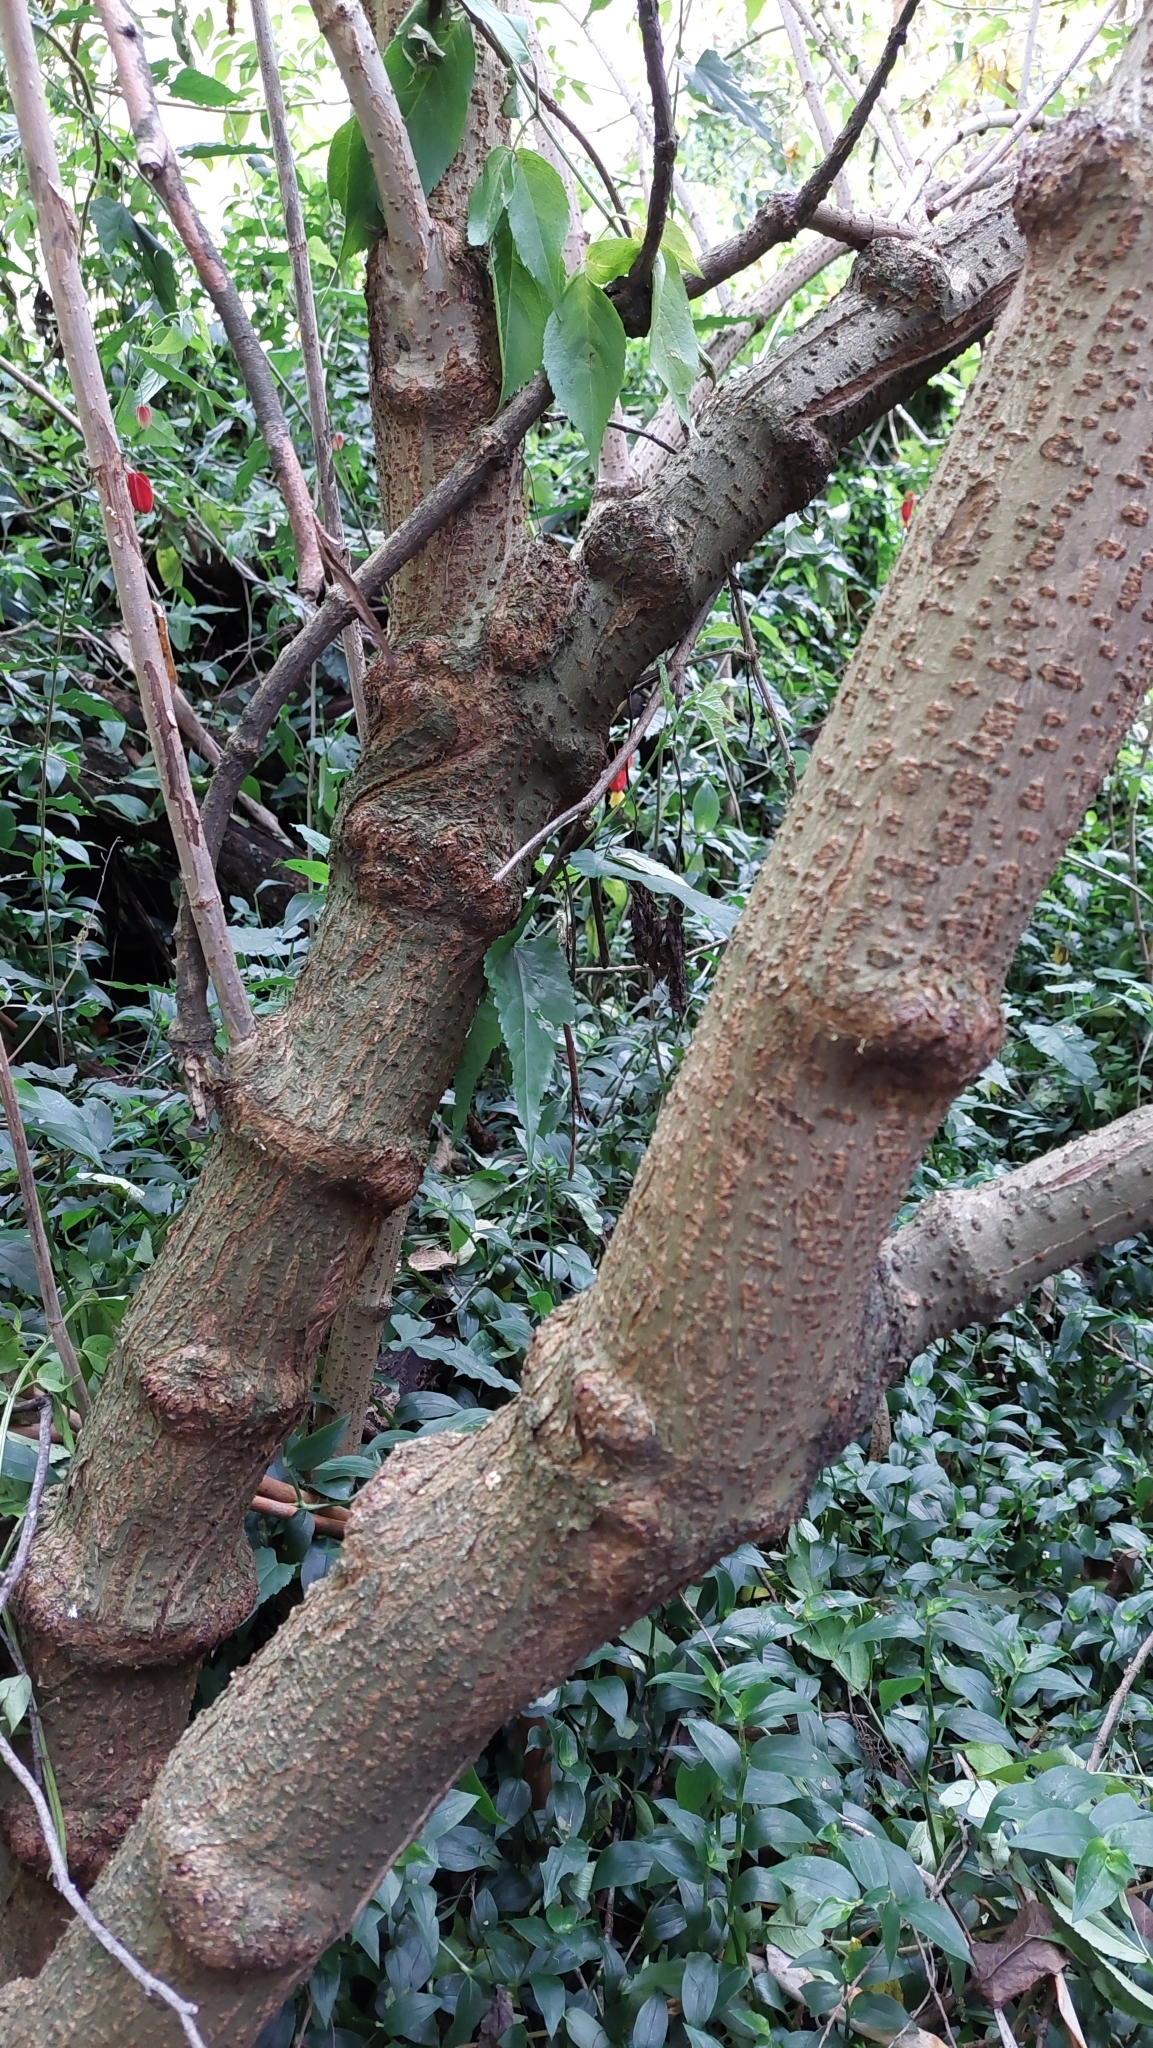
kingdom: Plantae
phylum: Tracheophyta
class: Magnoliopsida
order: Dipsacales
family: Viburnaceae
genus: Sambucus
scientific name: Sambucus nigra
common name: Elder
